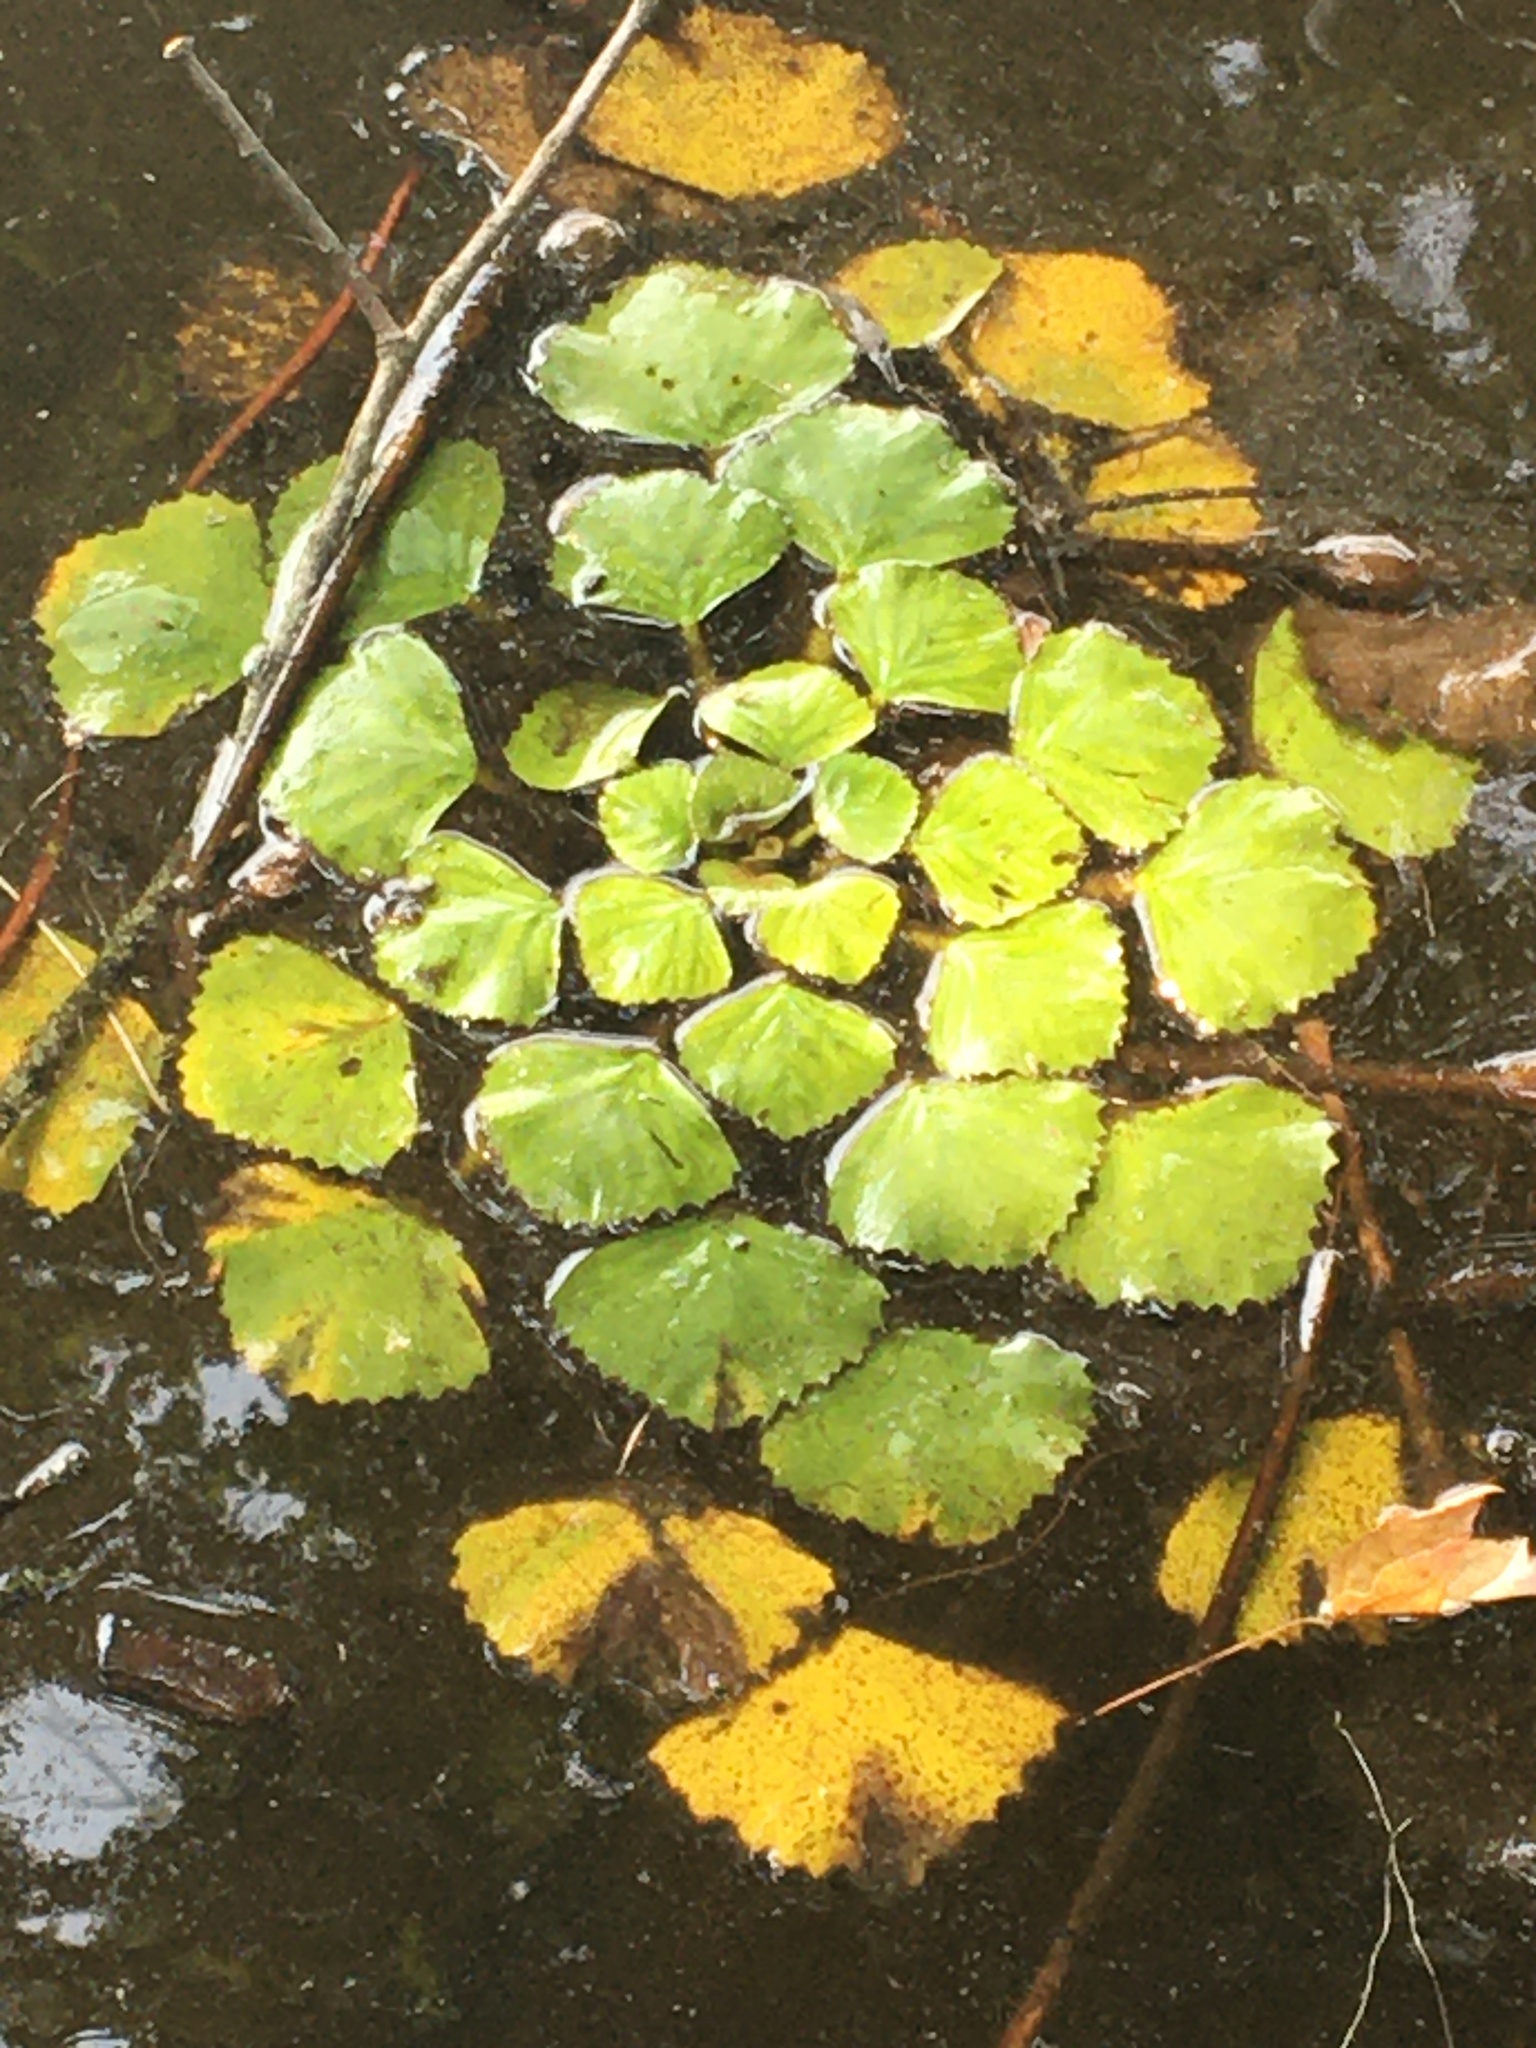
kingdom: Plantae
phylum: Tracheophyta
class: Magnoliopsida
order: Myrtales
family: Lythraceae
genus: Trapa
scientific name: Trapa natans
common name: Water chestnut
